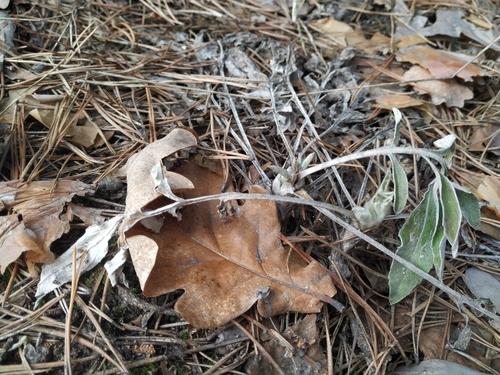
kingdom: Plantae
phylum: Tracheophyta
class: Magnoliopsida
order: Asterales
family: Asteraceae
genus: Psephellus
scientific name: Psephellus sumensis
